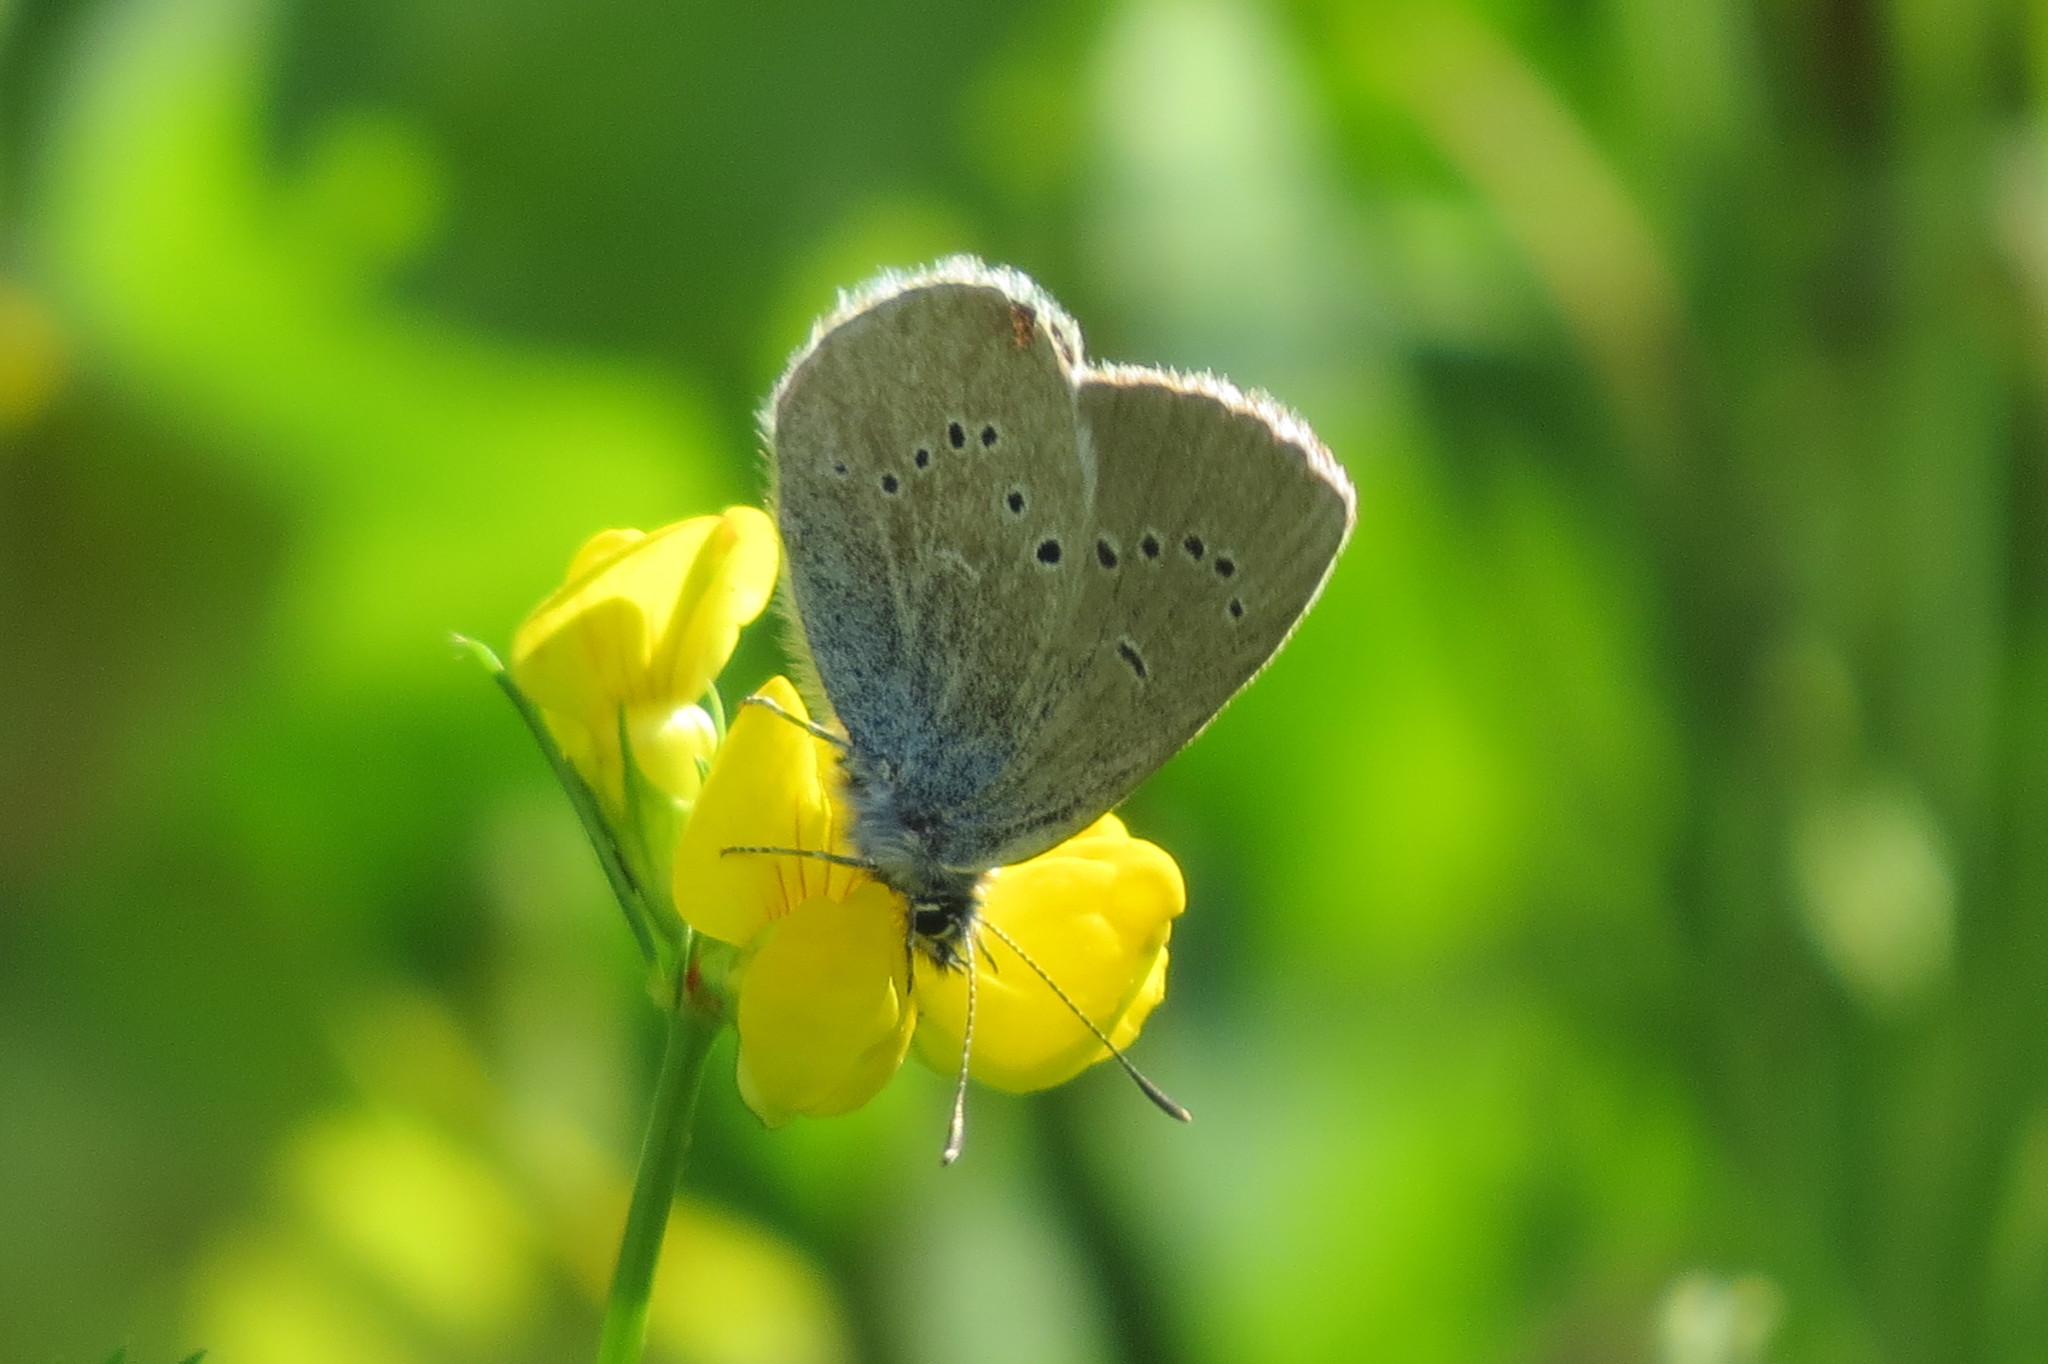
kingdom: Animalia
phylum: Arthropoda
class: Insecta
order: Lepidoptera
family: Lycaenidae
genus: Cyaniris
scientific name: Cyaniris semiargus
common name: Mazarine blue
